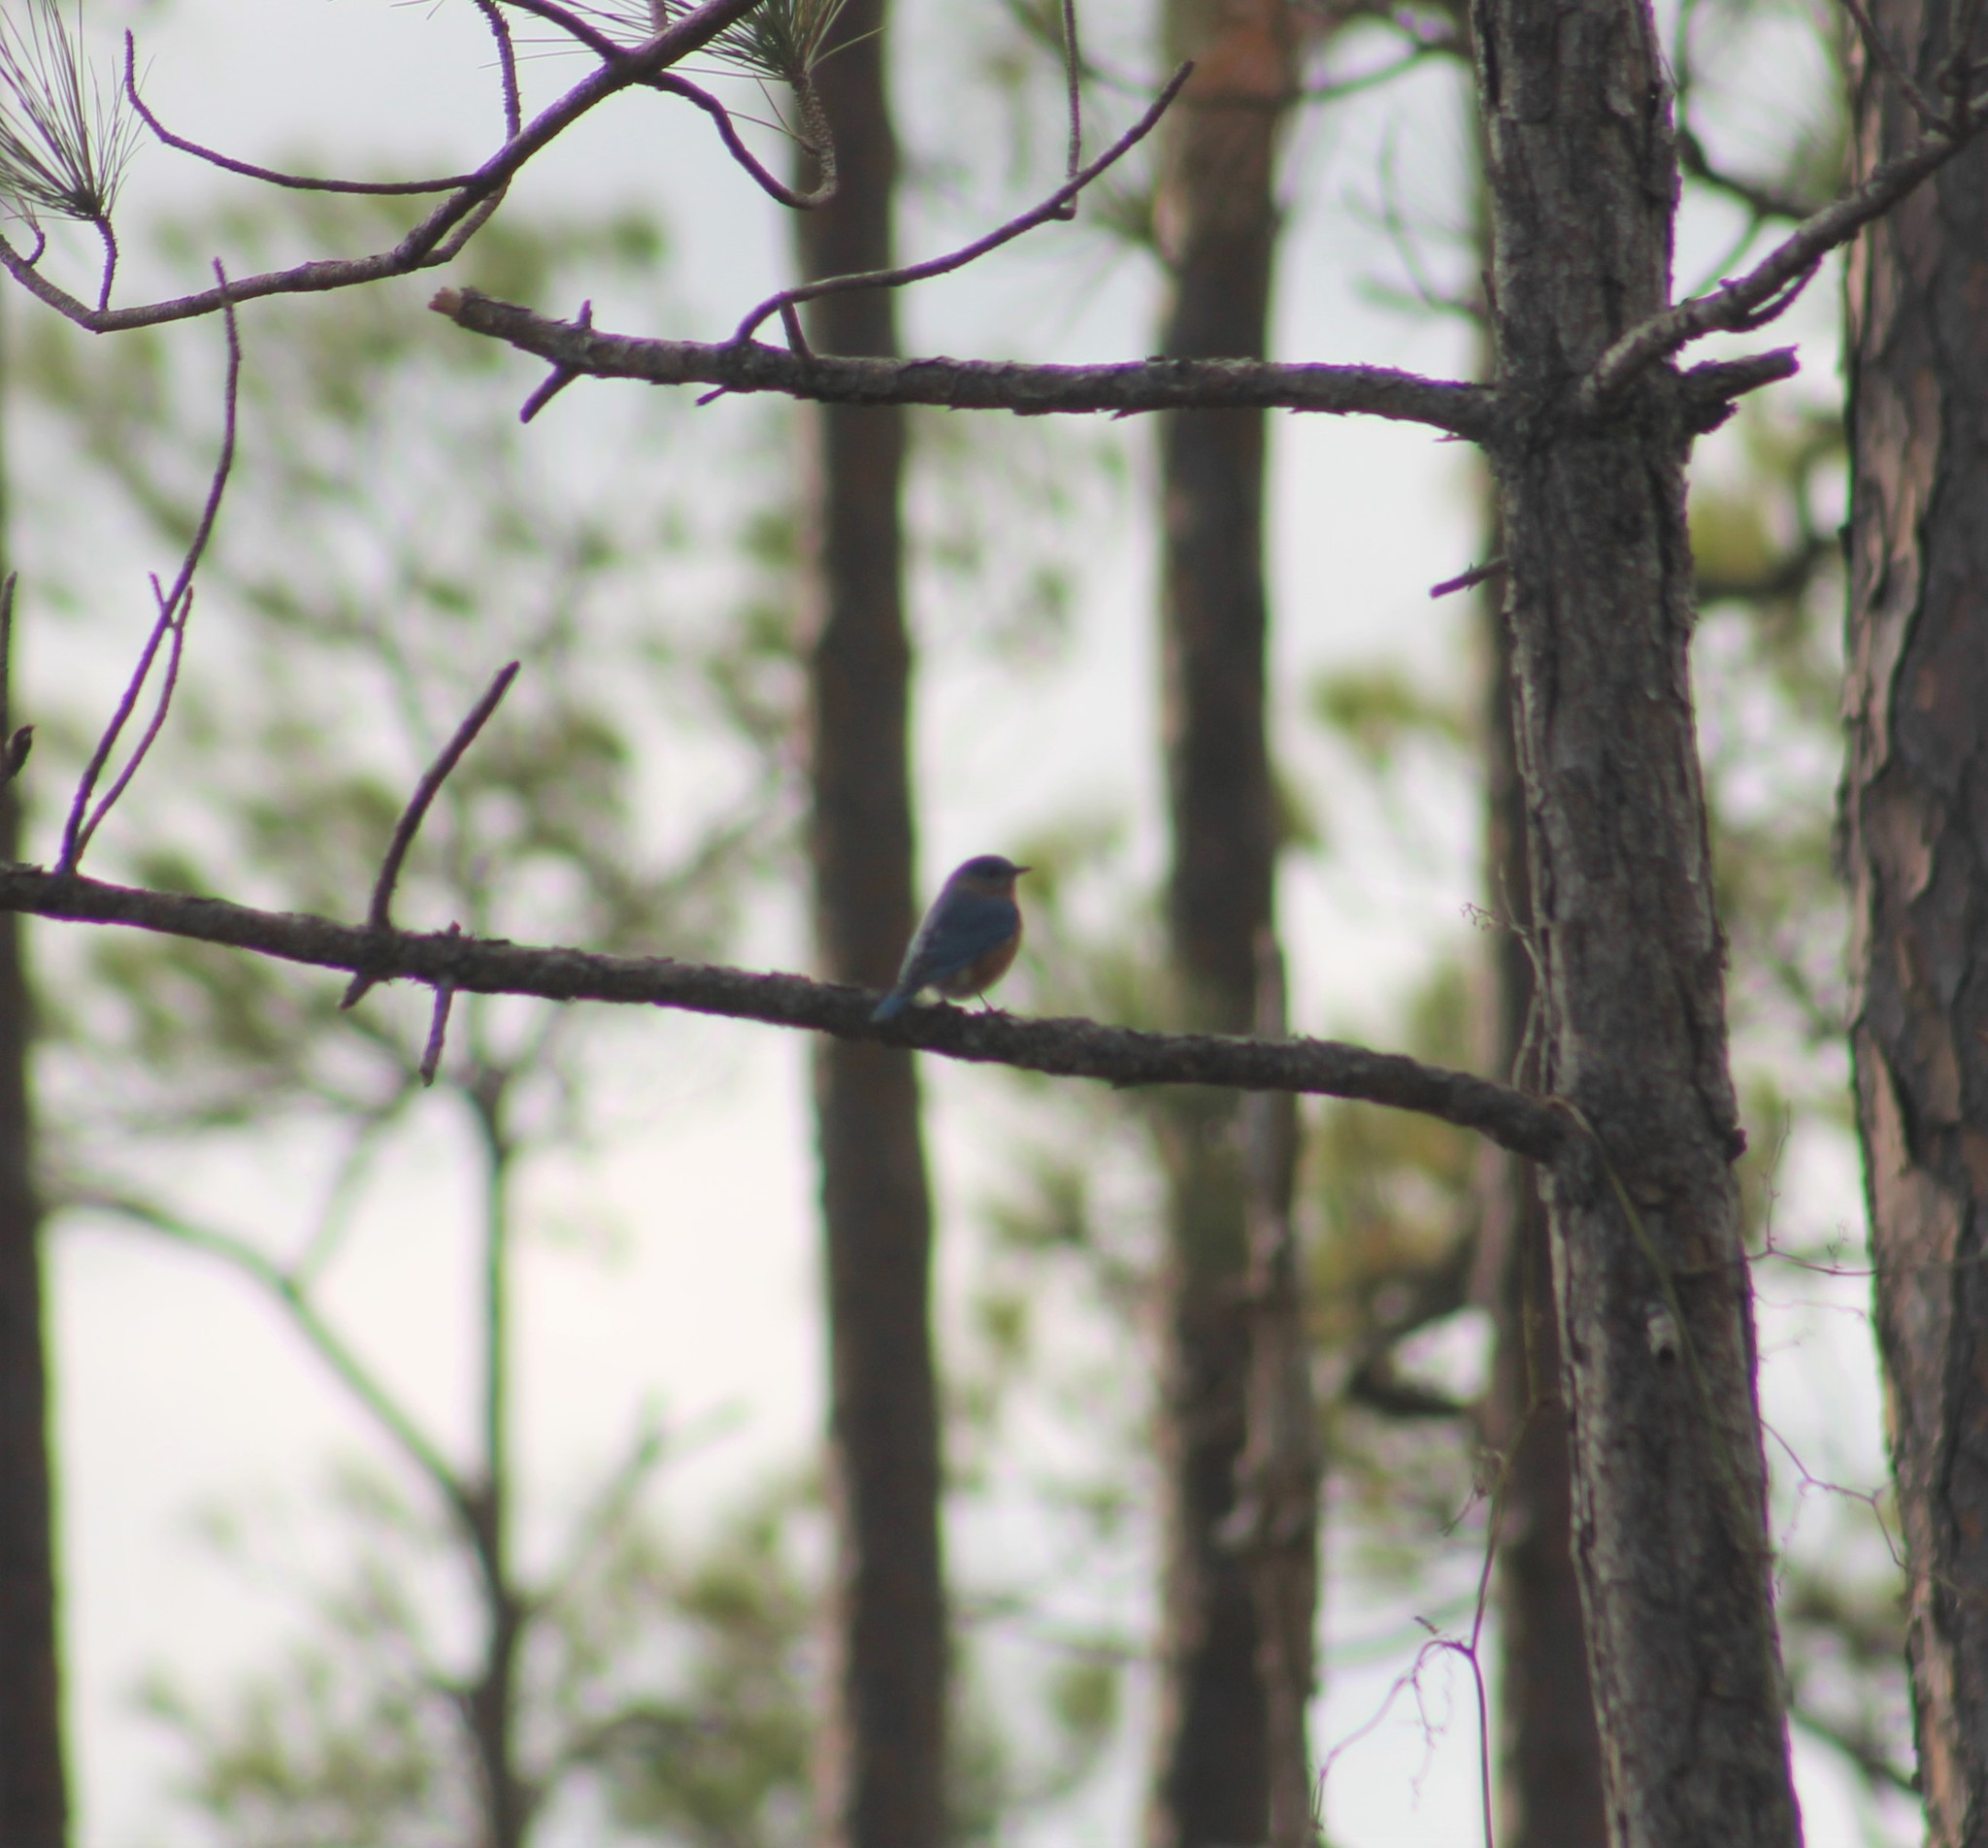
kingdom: Animalia
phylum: Chordata
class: Aves
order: Passeriformes
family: Turdidae
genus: Sialia
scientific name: Sialia sialis
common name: Eastern bluebird
